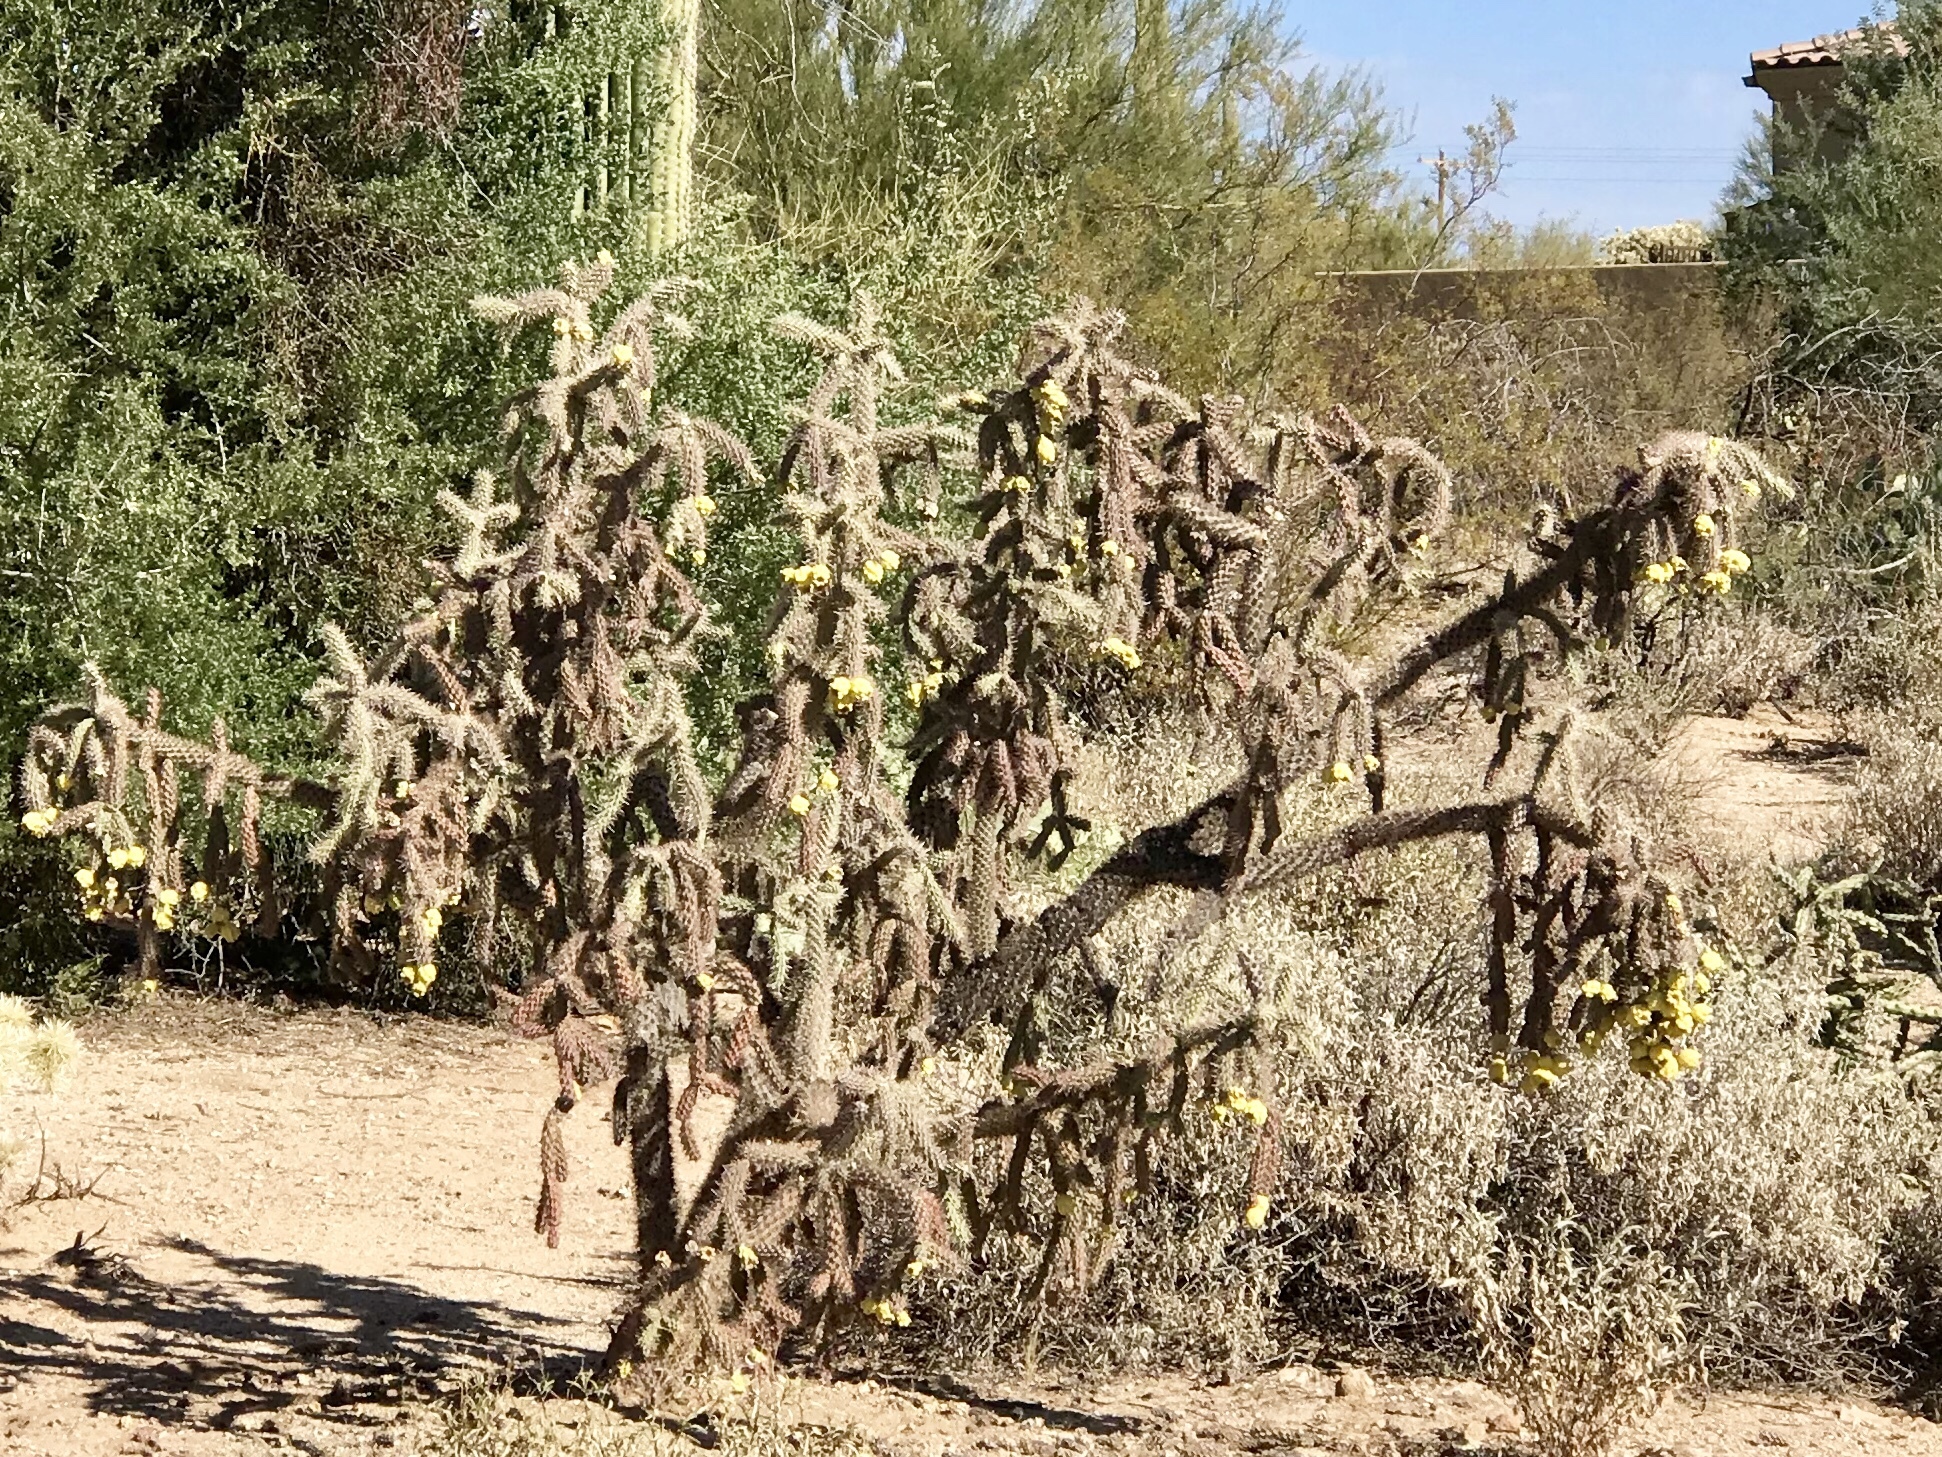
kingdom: Plantae
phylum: Tracheophyta
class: Magnoliopsida
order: Caryophyllales
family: Cactaceae
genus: Cylindropuntia
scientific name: Cylindropuntia imbricata
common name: Candelabrum cactus
